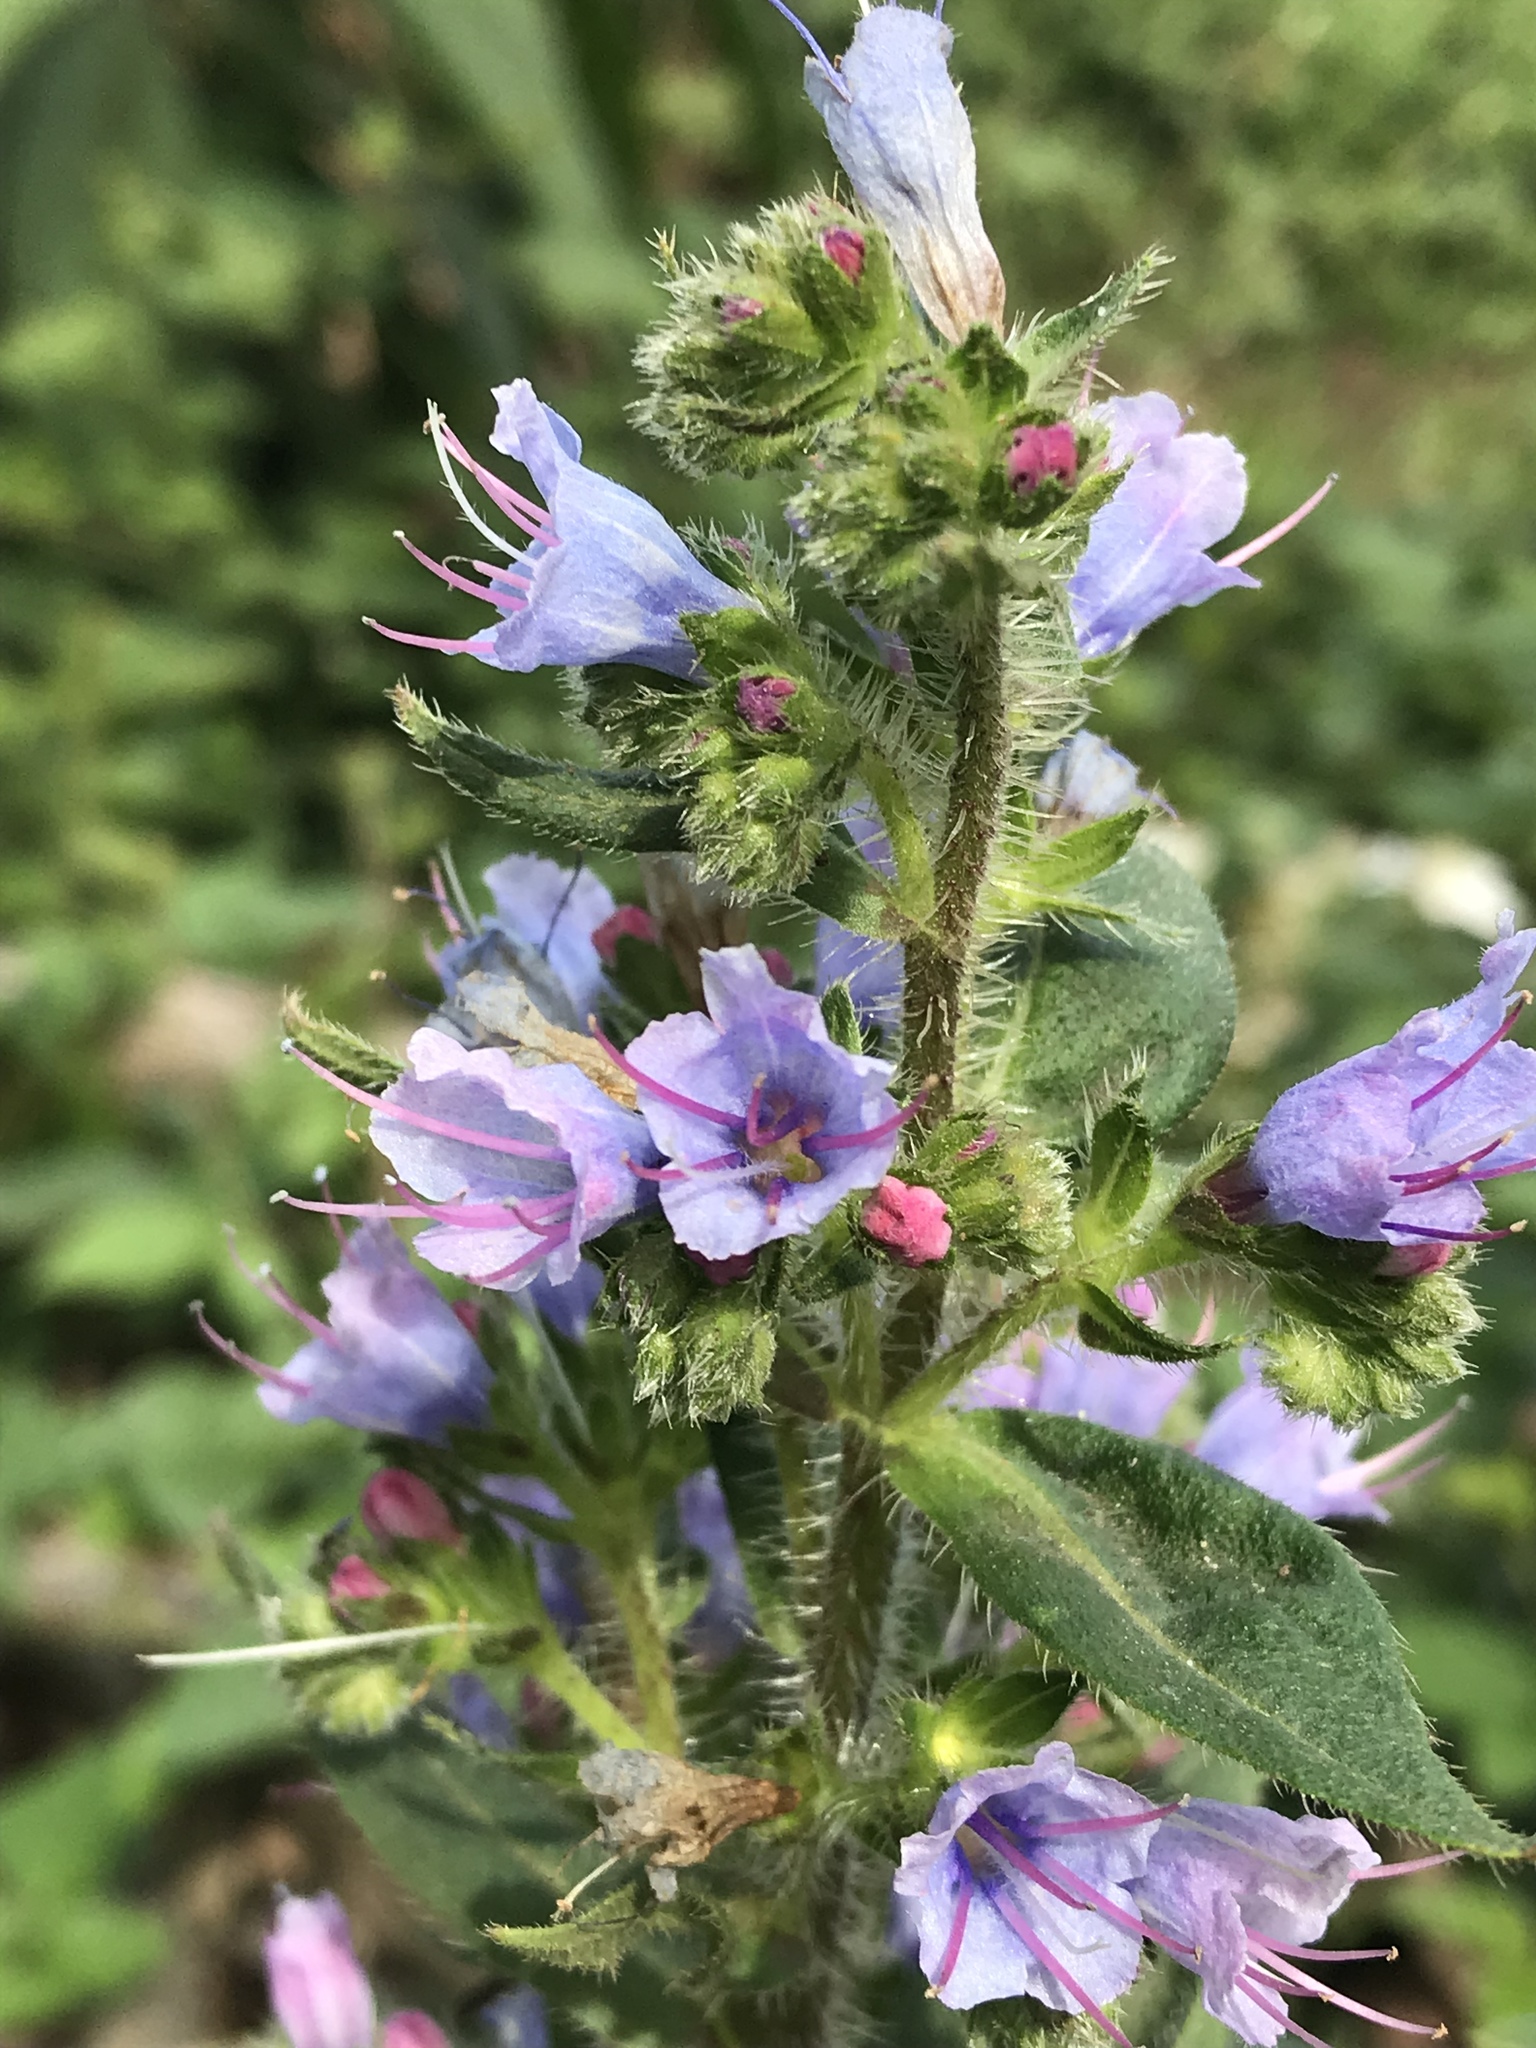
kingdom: Plantae
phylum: Tracheophyta
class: Magnoliopsida
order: Boraginales
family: Boraginaceae
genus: Echium
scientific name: Echium vulgare
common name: Common viper's bugloss
